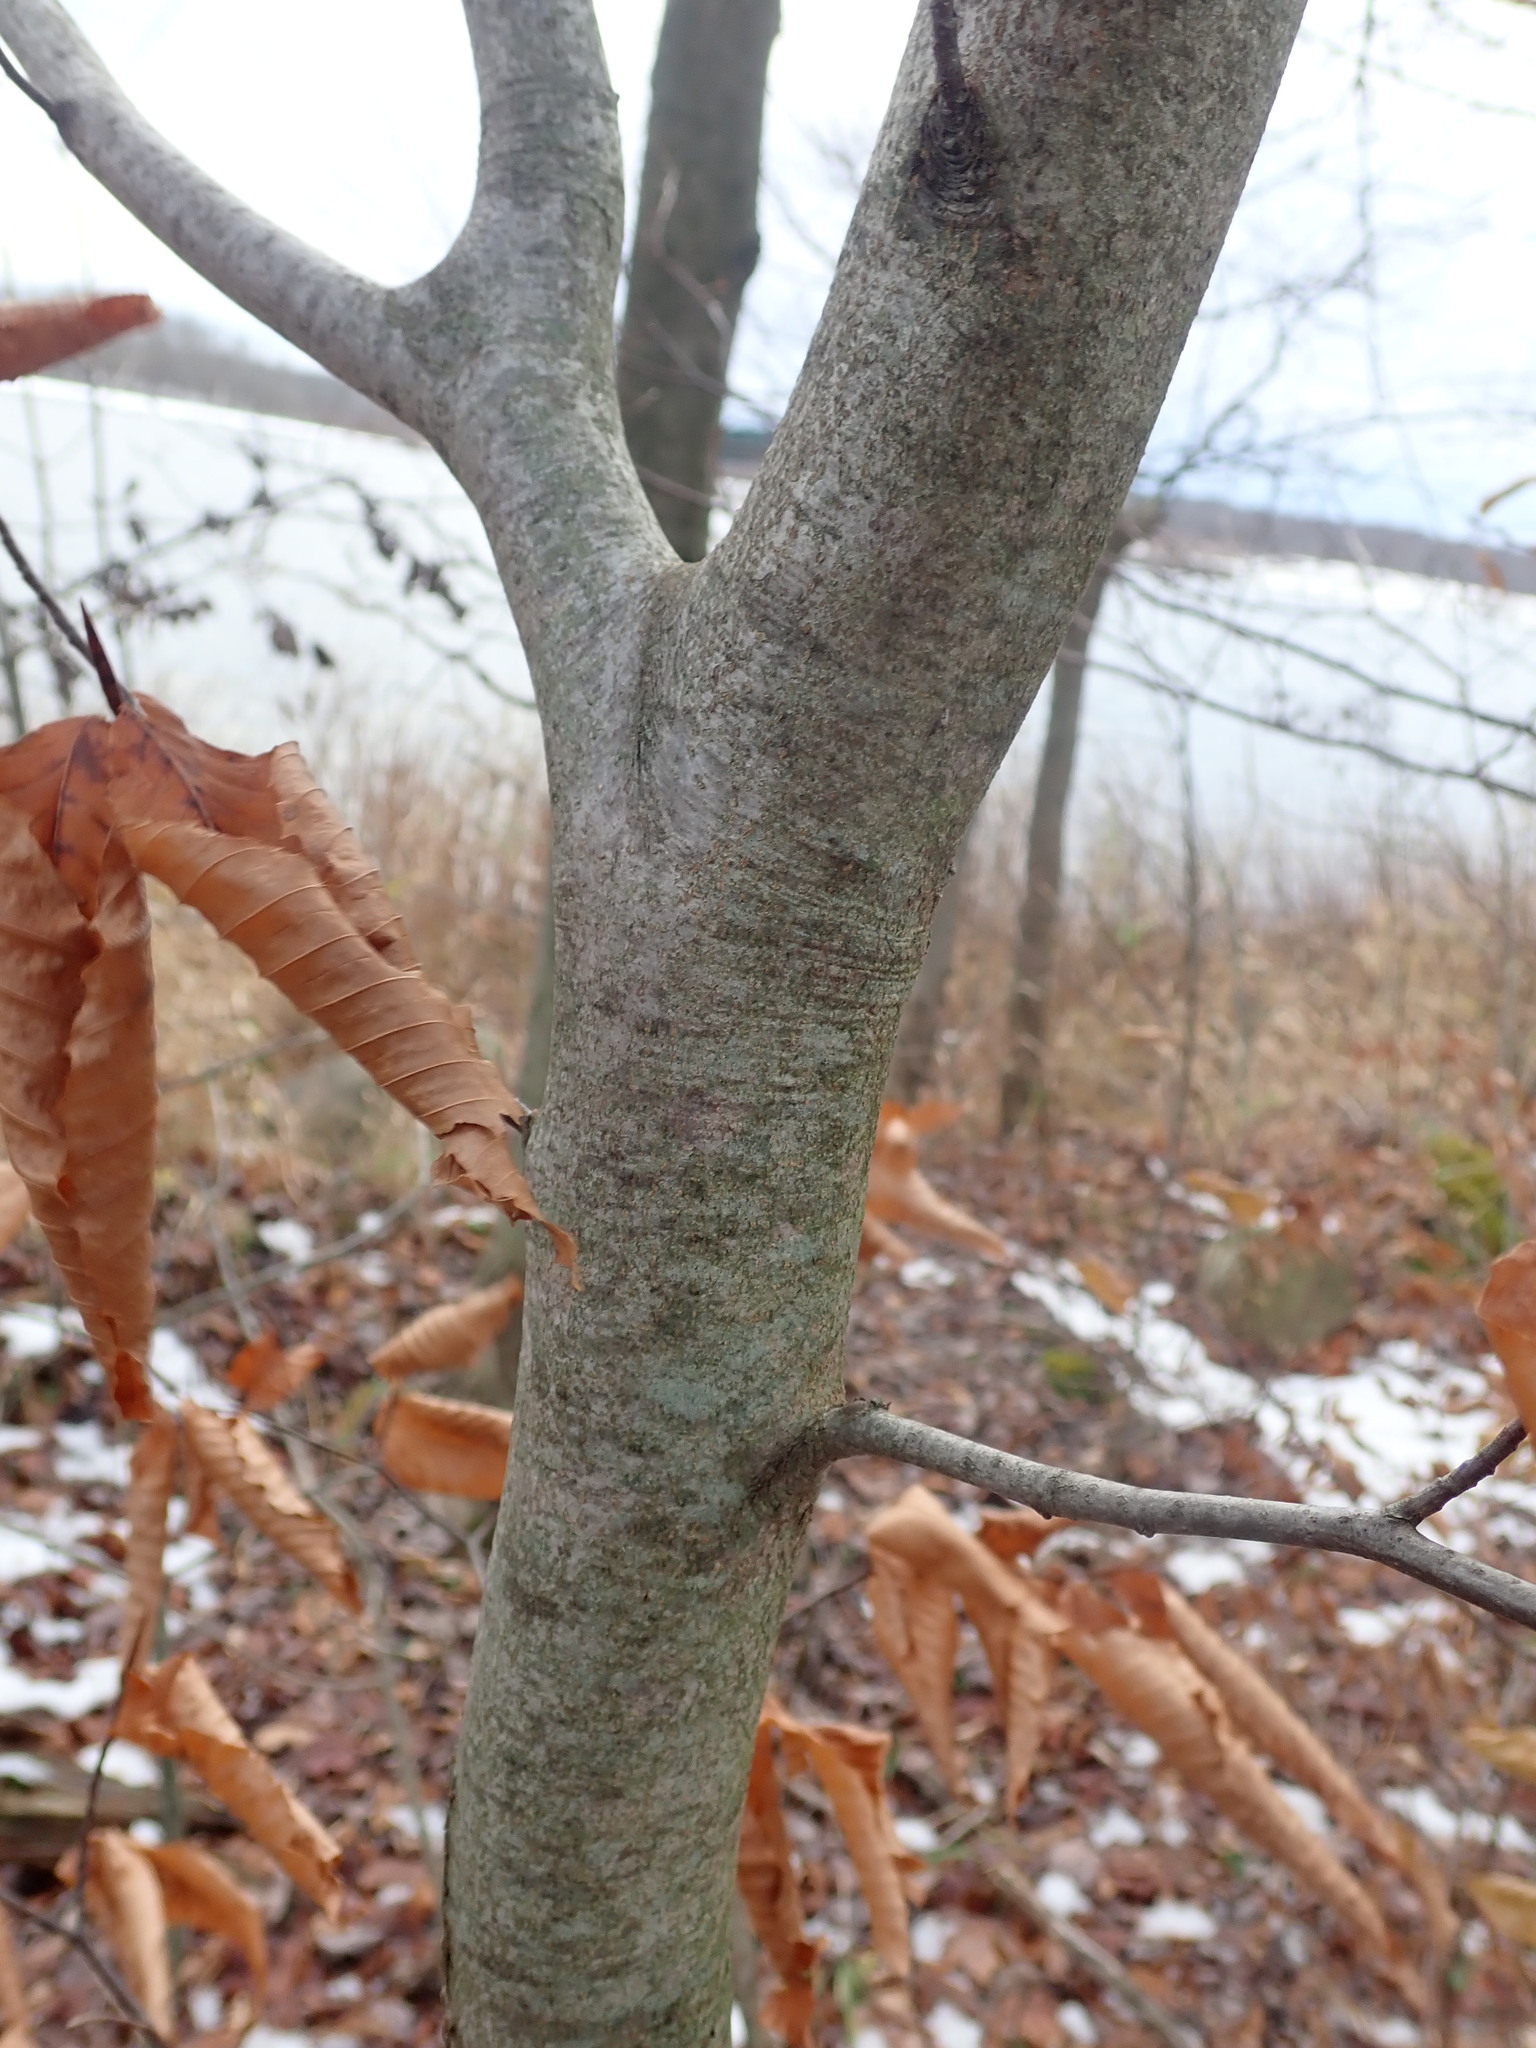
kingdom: Plantae
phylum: Tracheophyta
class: Magnoliopsida
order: Fagales
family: Fagaceae
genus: Fagus
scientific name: Fagus grandifolia
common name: American beech
